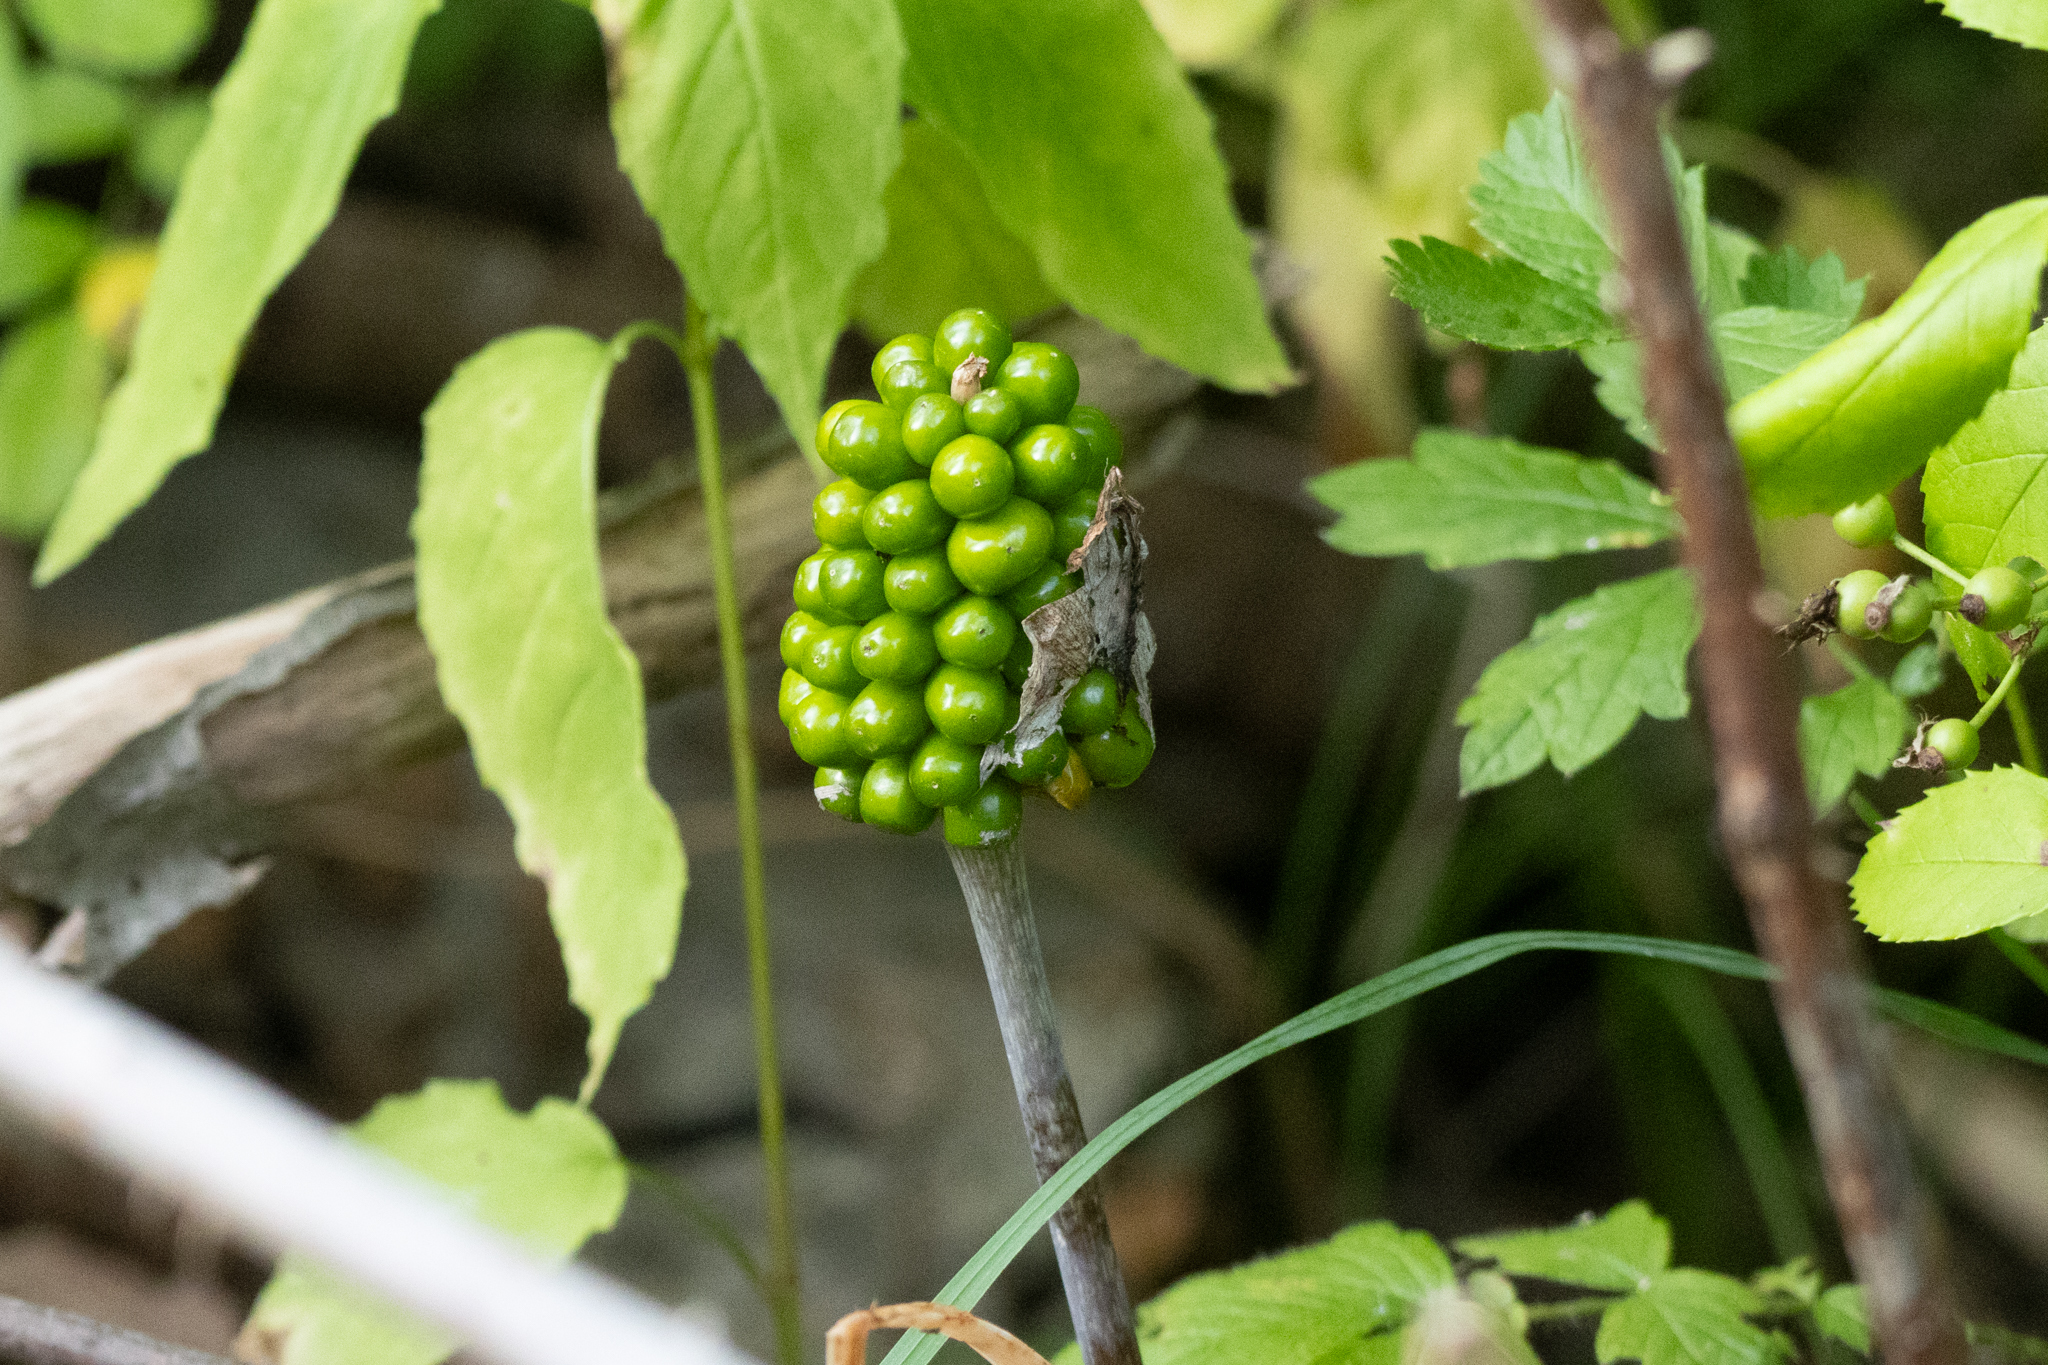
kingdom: Plantae
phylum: Tracheophyta
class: Liliopsida
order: Alismatales
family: Araceae
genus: Arisaema
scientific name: Arisaema triphyllum
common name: Jack-in-the-pulpit
